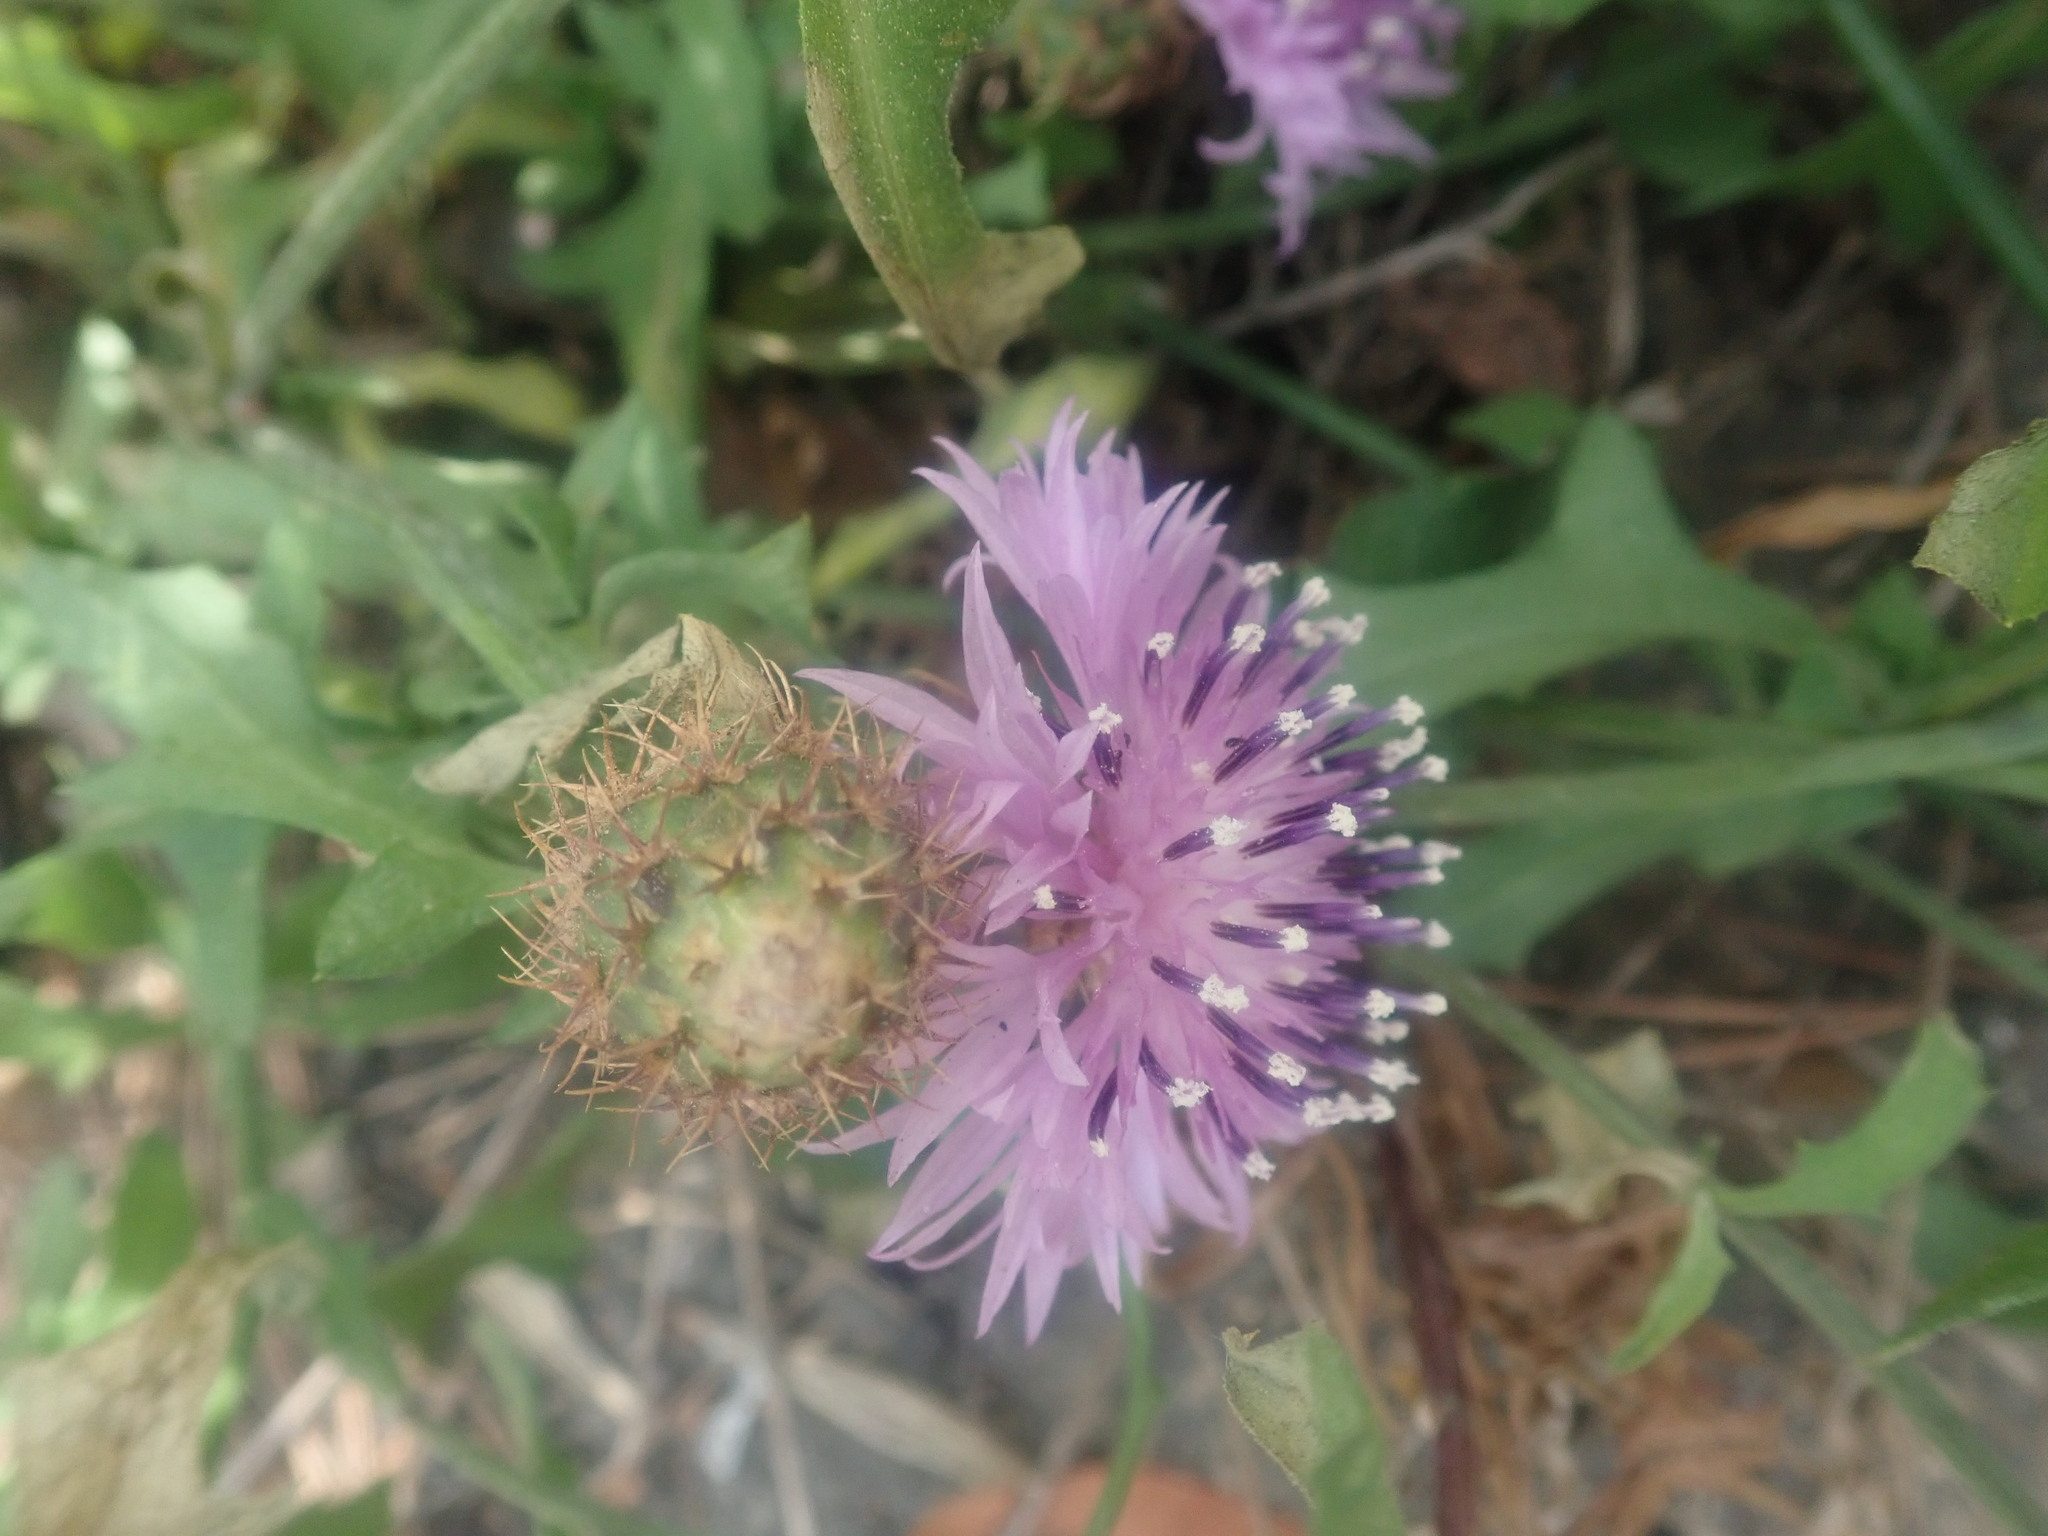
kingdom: Plantae
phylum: Tracheophyta
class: Magnoliopsida
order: Asterales
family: Asteraceae
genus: Centaurea
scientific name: Centaurea aspera
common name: Rough star-thistle
